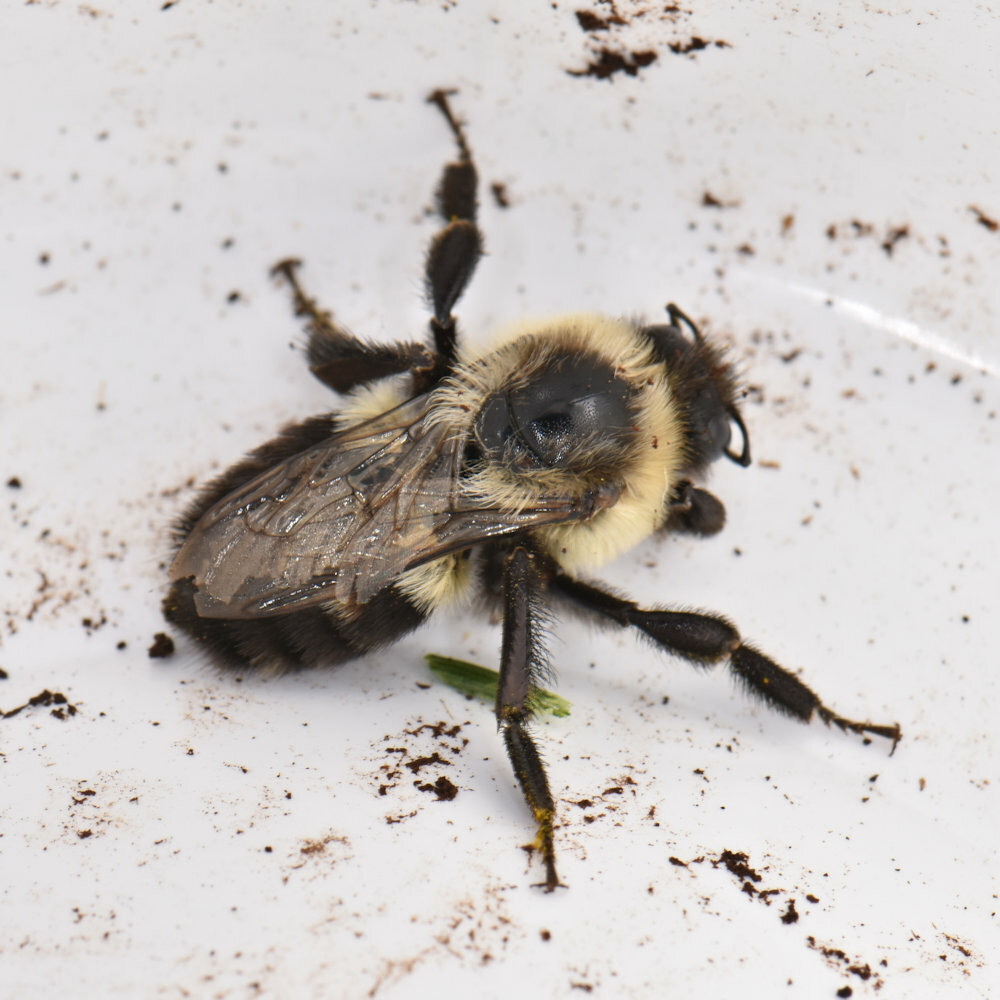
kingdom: Animalia
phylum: Arthropoda
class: Insecta
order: Hymenoptera
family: Apidae
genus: Bombus
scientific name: Bombus impatiens
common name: Common eastern bumble bee
